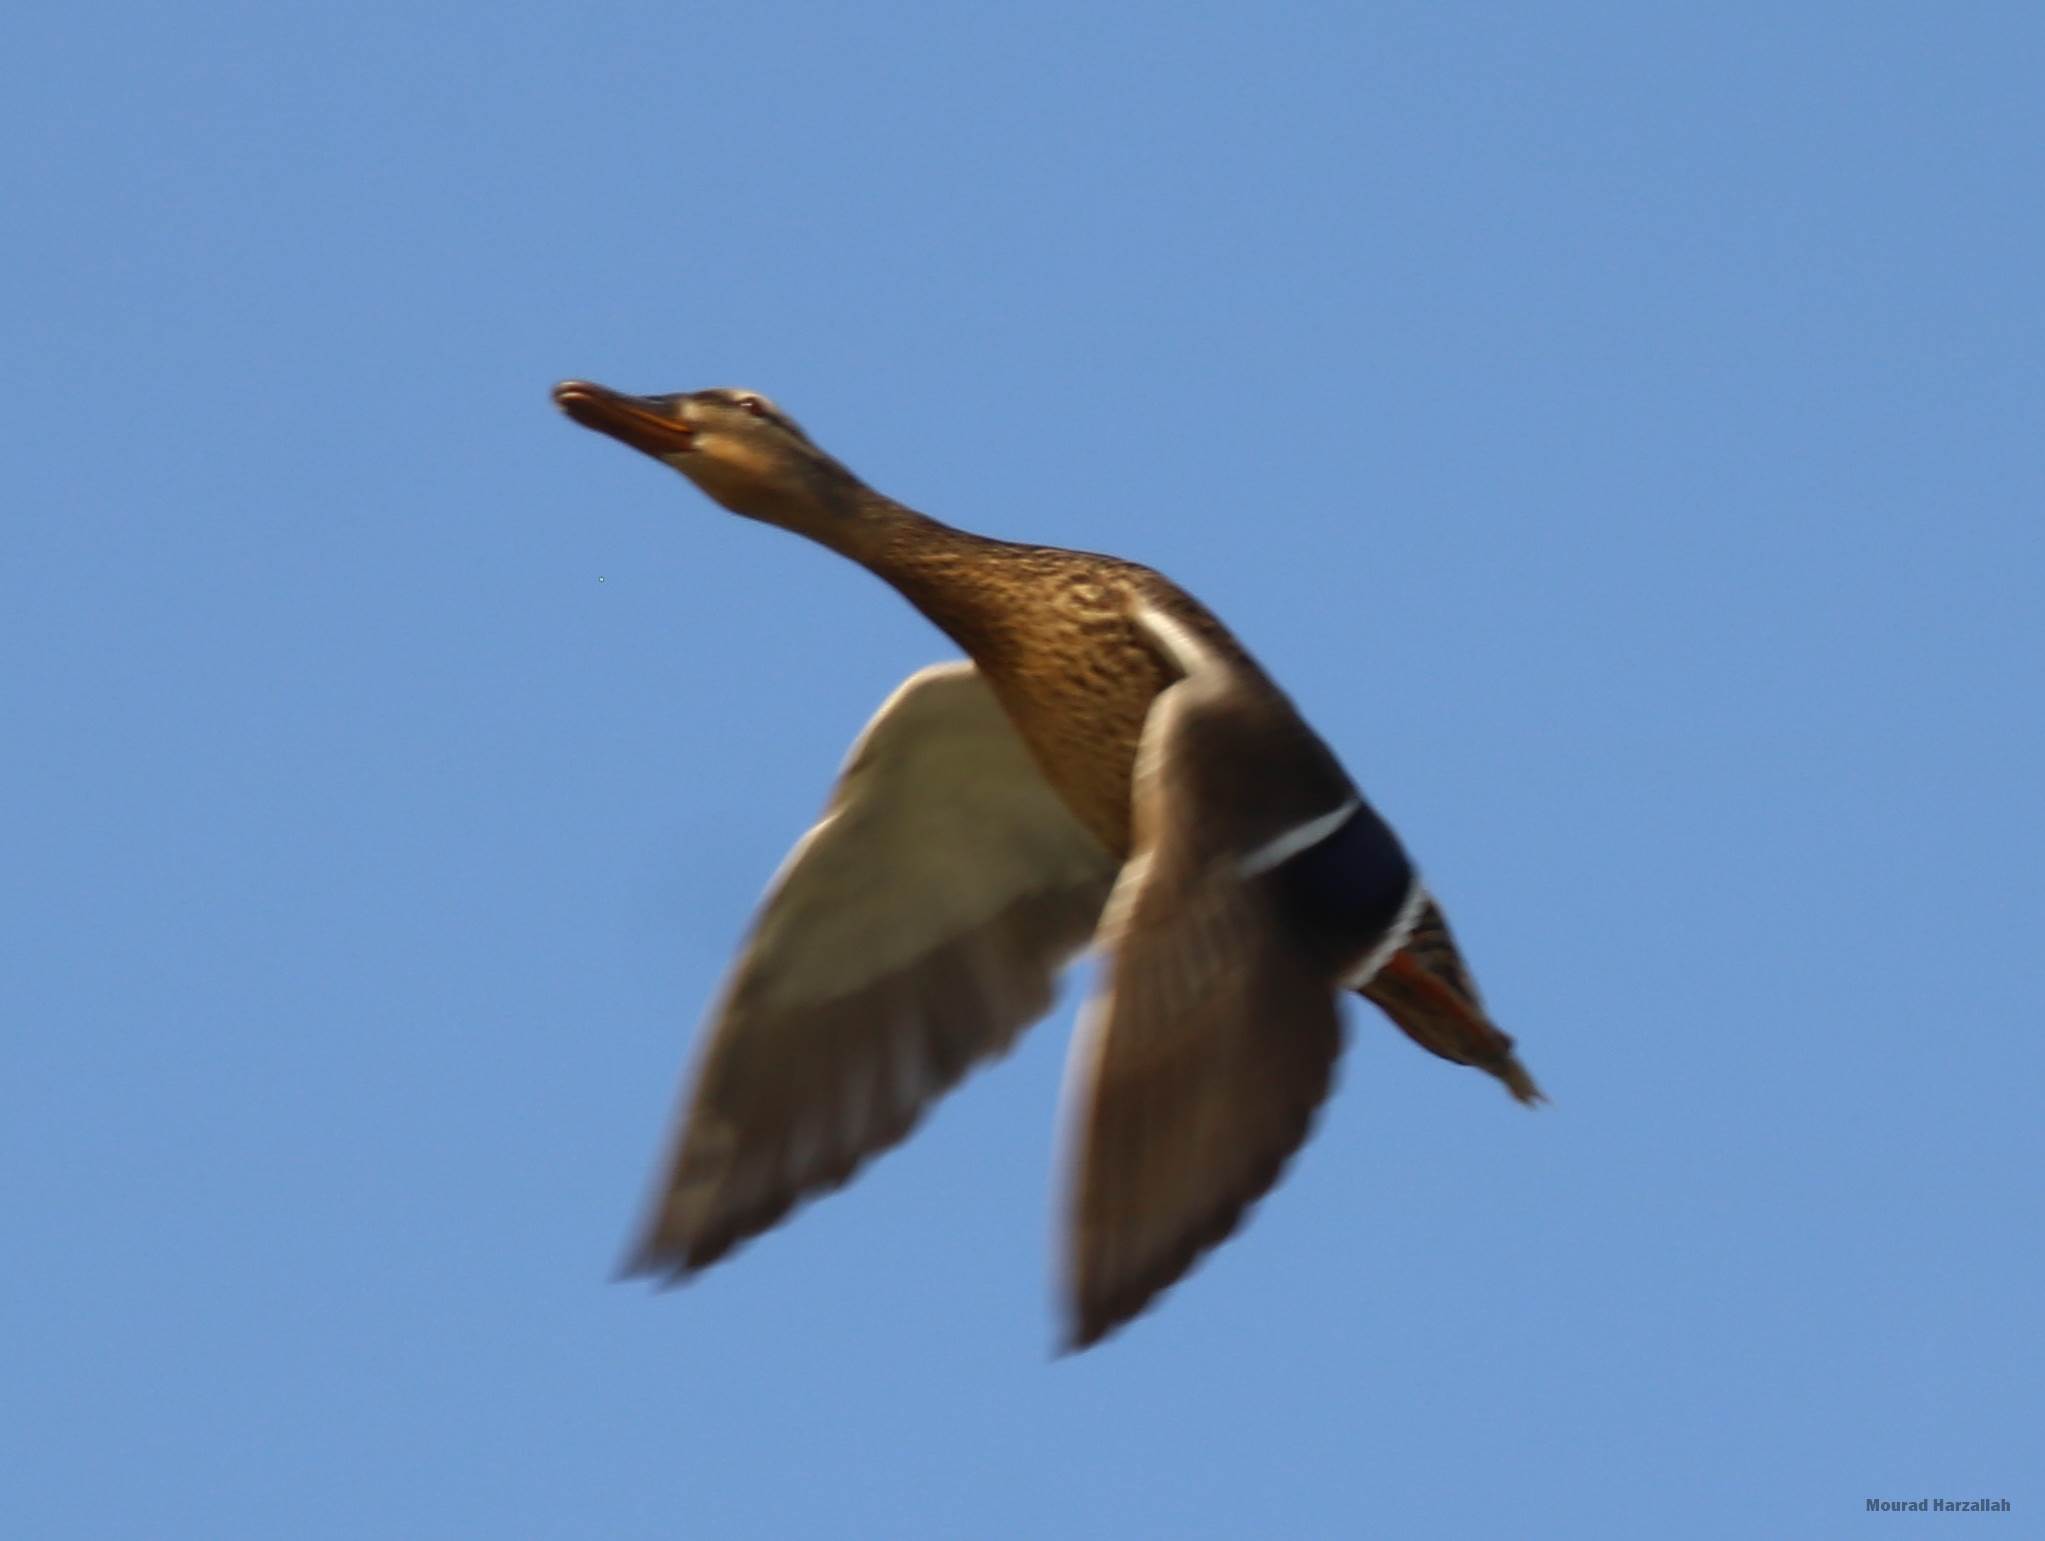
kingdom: Animalia
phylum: Chordata
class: Aves
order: Anseriformes
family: Anatidae
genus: Anas
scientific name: Anas platyrhynchos
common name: Mallard
